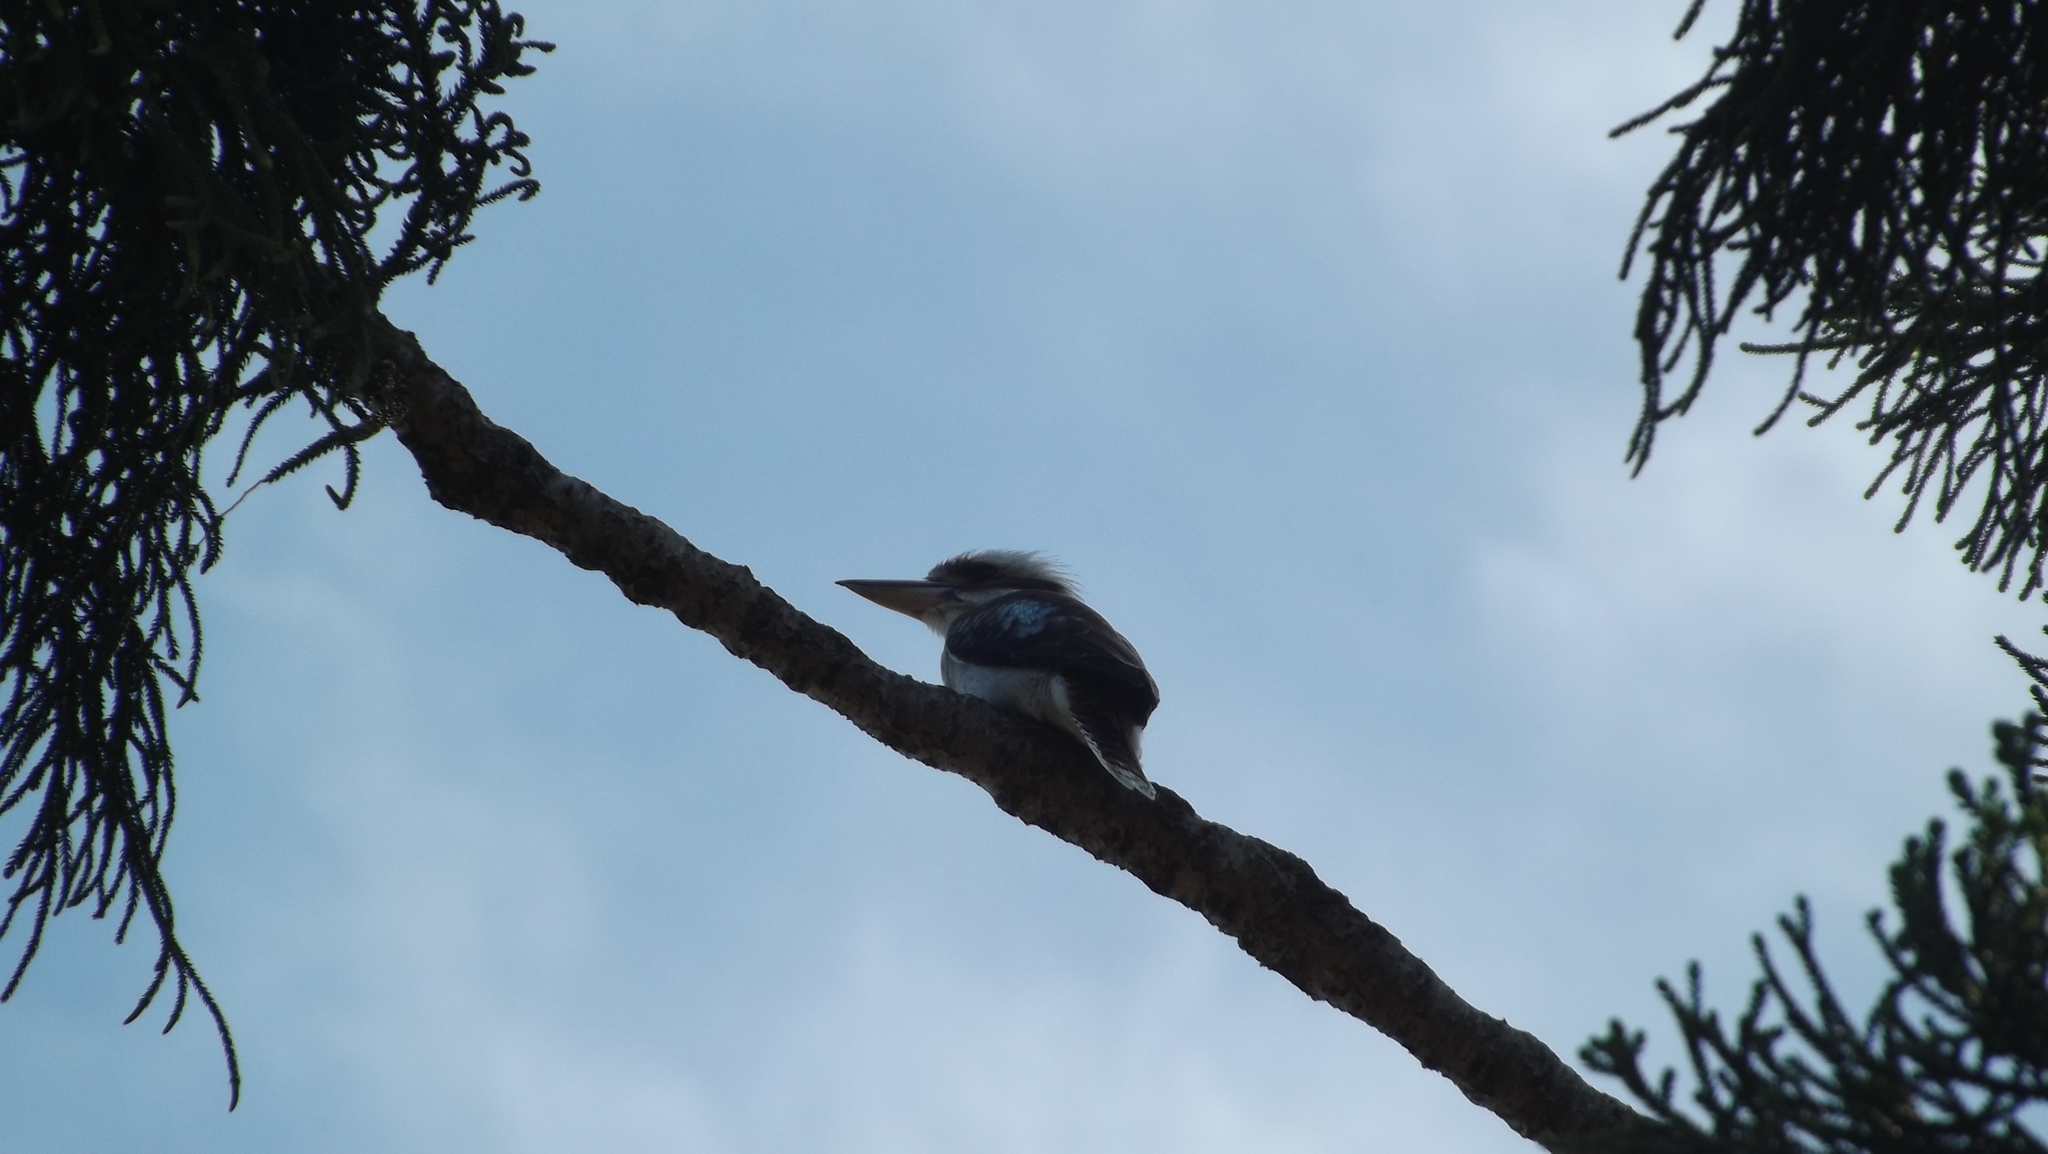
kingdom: Animalia
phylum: Chordata
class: Aves
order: Coraciiformes
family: Alcedinidae
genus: Dacelo
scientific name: Dacelo novaeguineae
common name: Laughing kookaburra
